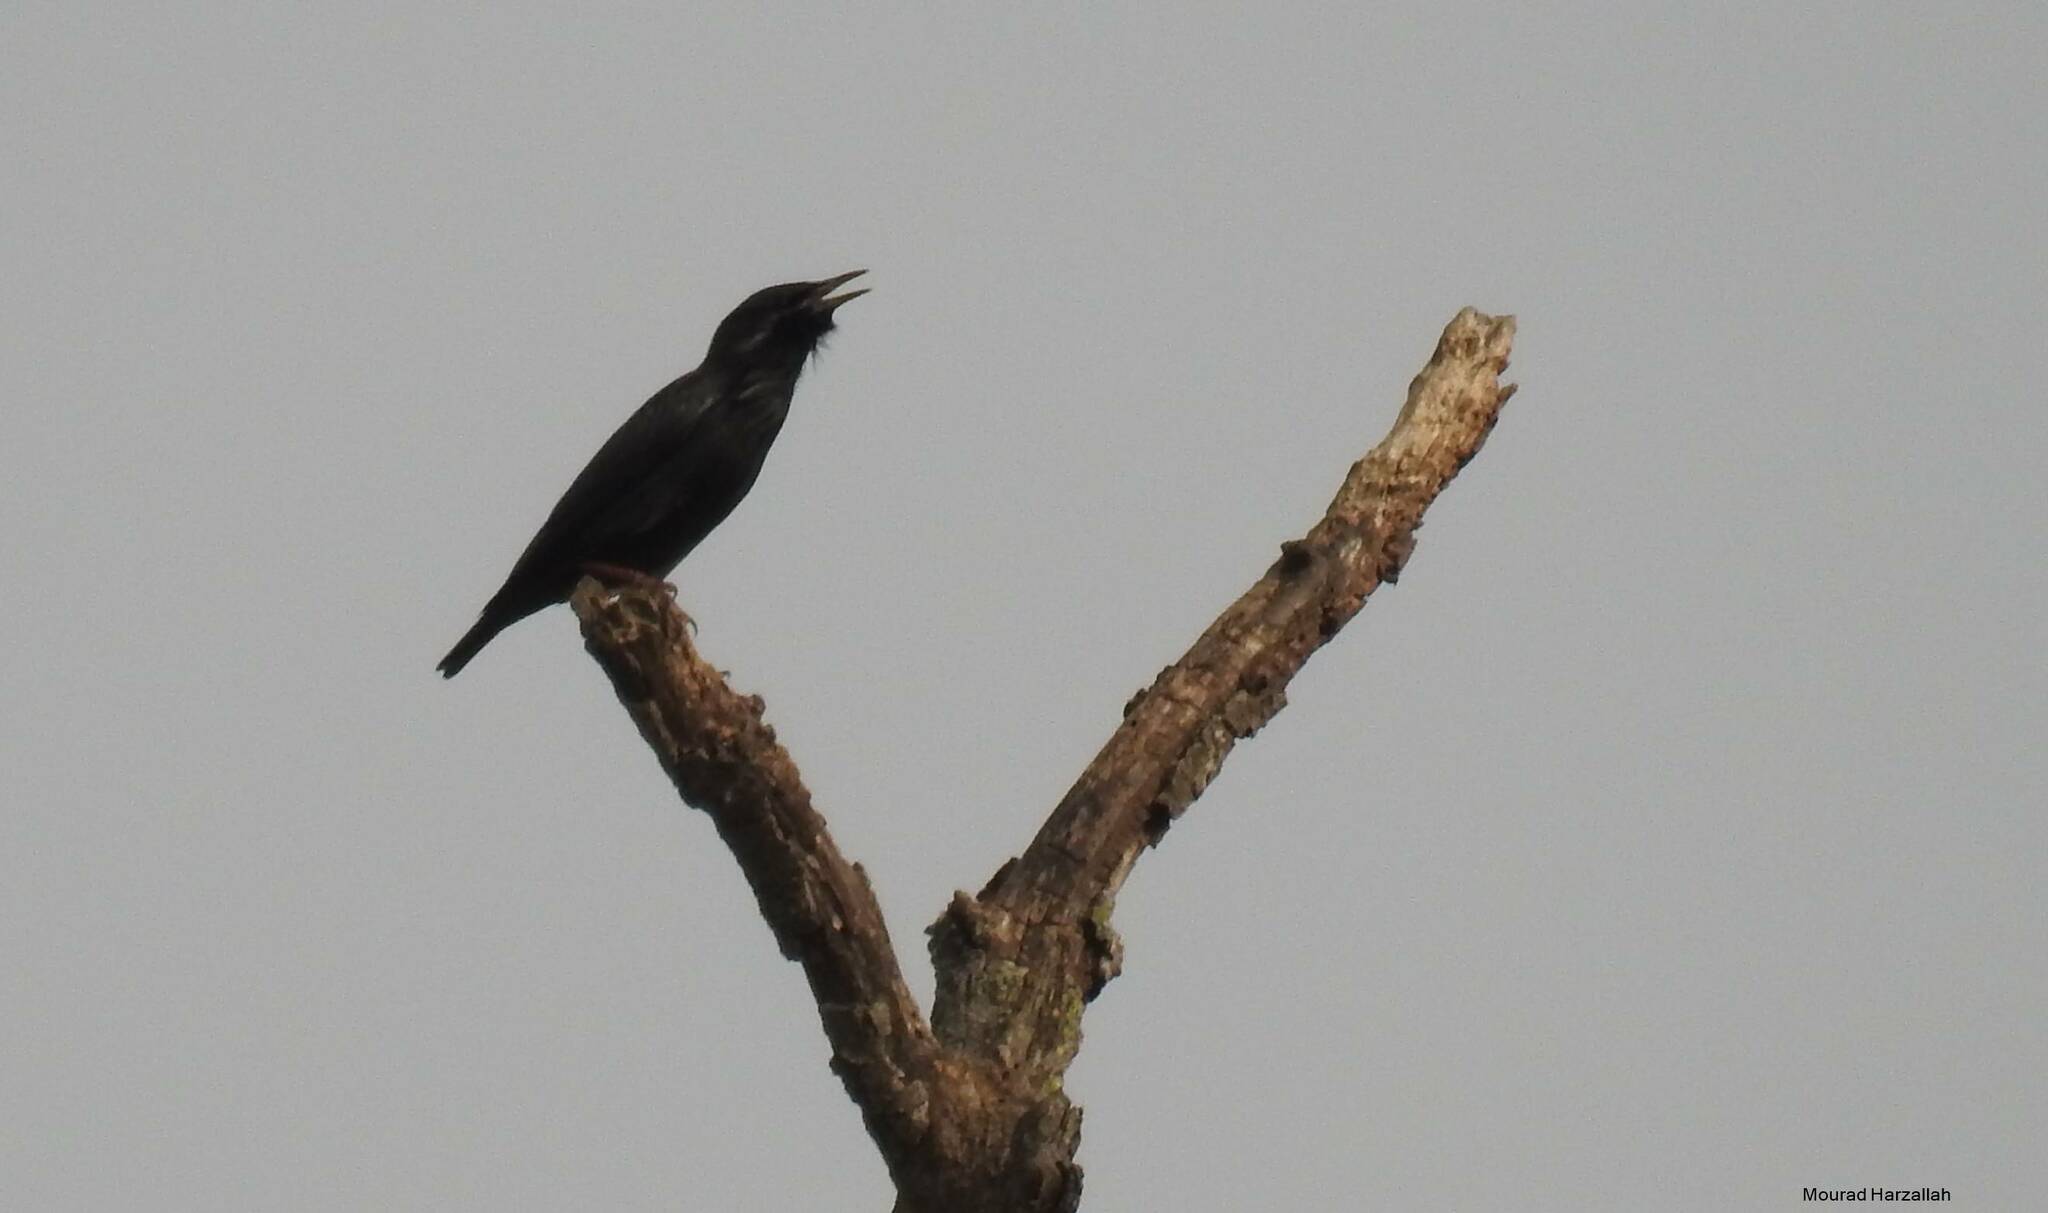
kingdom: Animalia
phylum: Chordata
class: Aves
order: Passeriformes
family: Sturnidae
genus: Sturnus
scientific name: Sturnus unicolor
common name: Spotless starling
